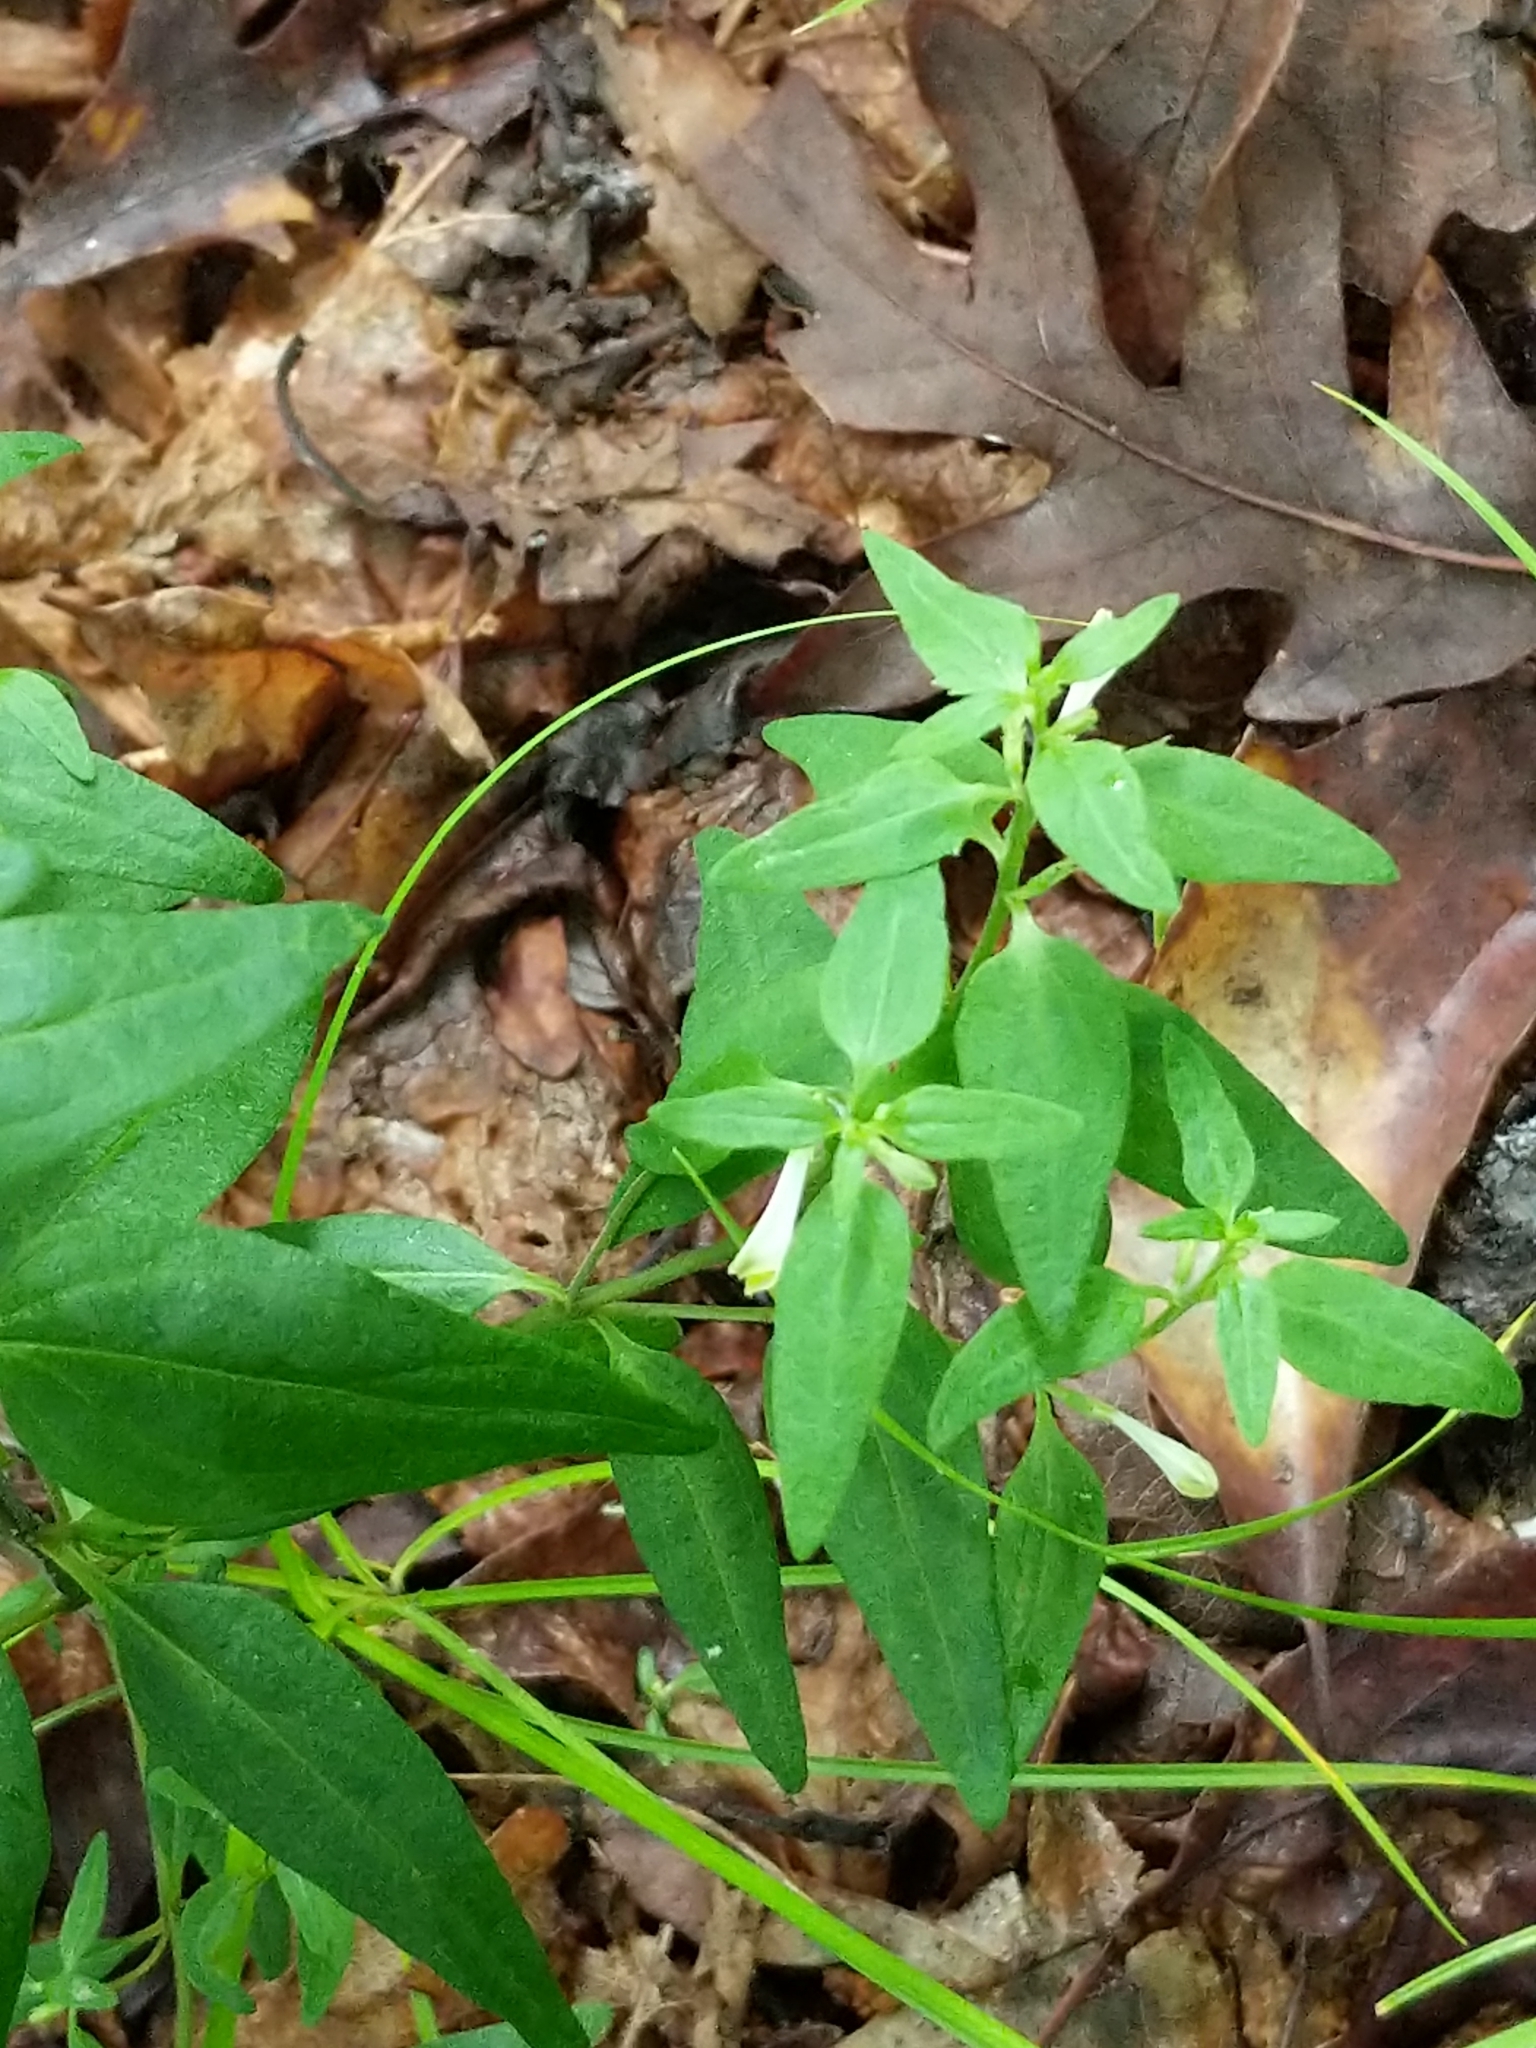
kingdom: Plantae
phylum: Tracheophyta
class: Magnoliopsida
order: Lamiales
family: Orobanchaceae
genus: Melampyrum
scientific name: Melampyrum lineare
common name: American cow-wheat
